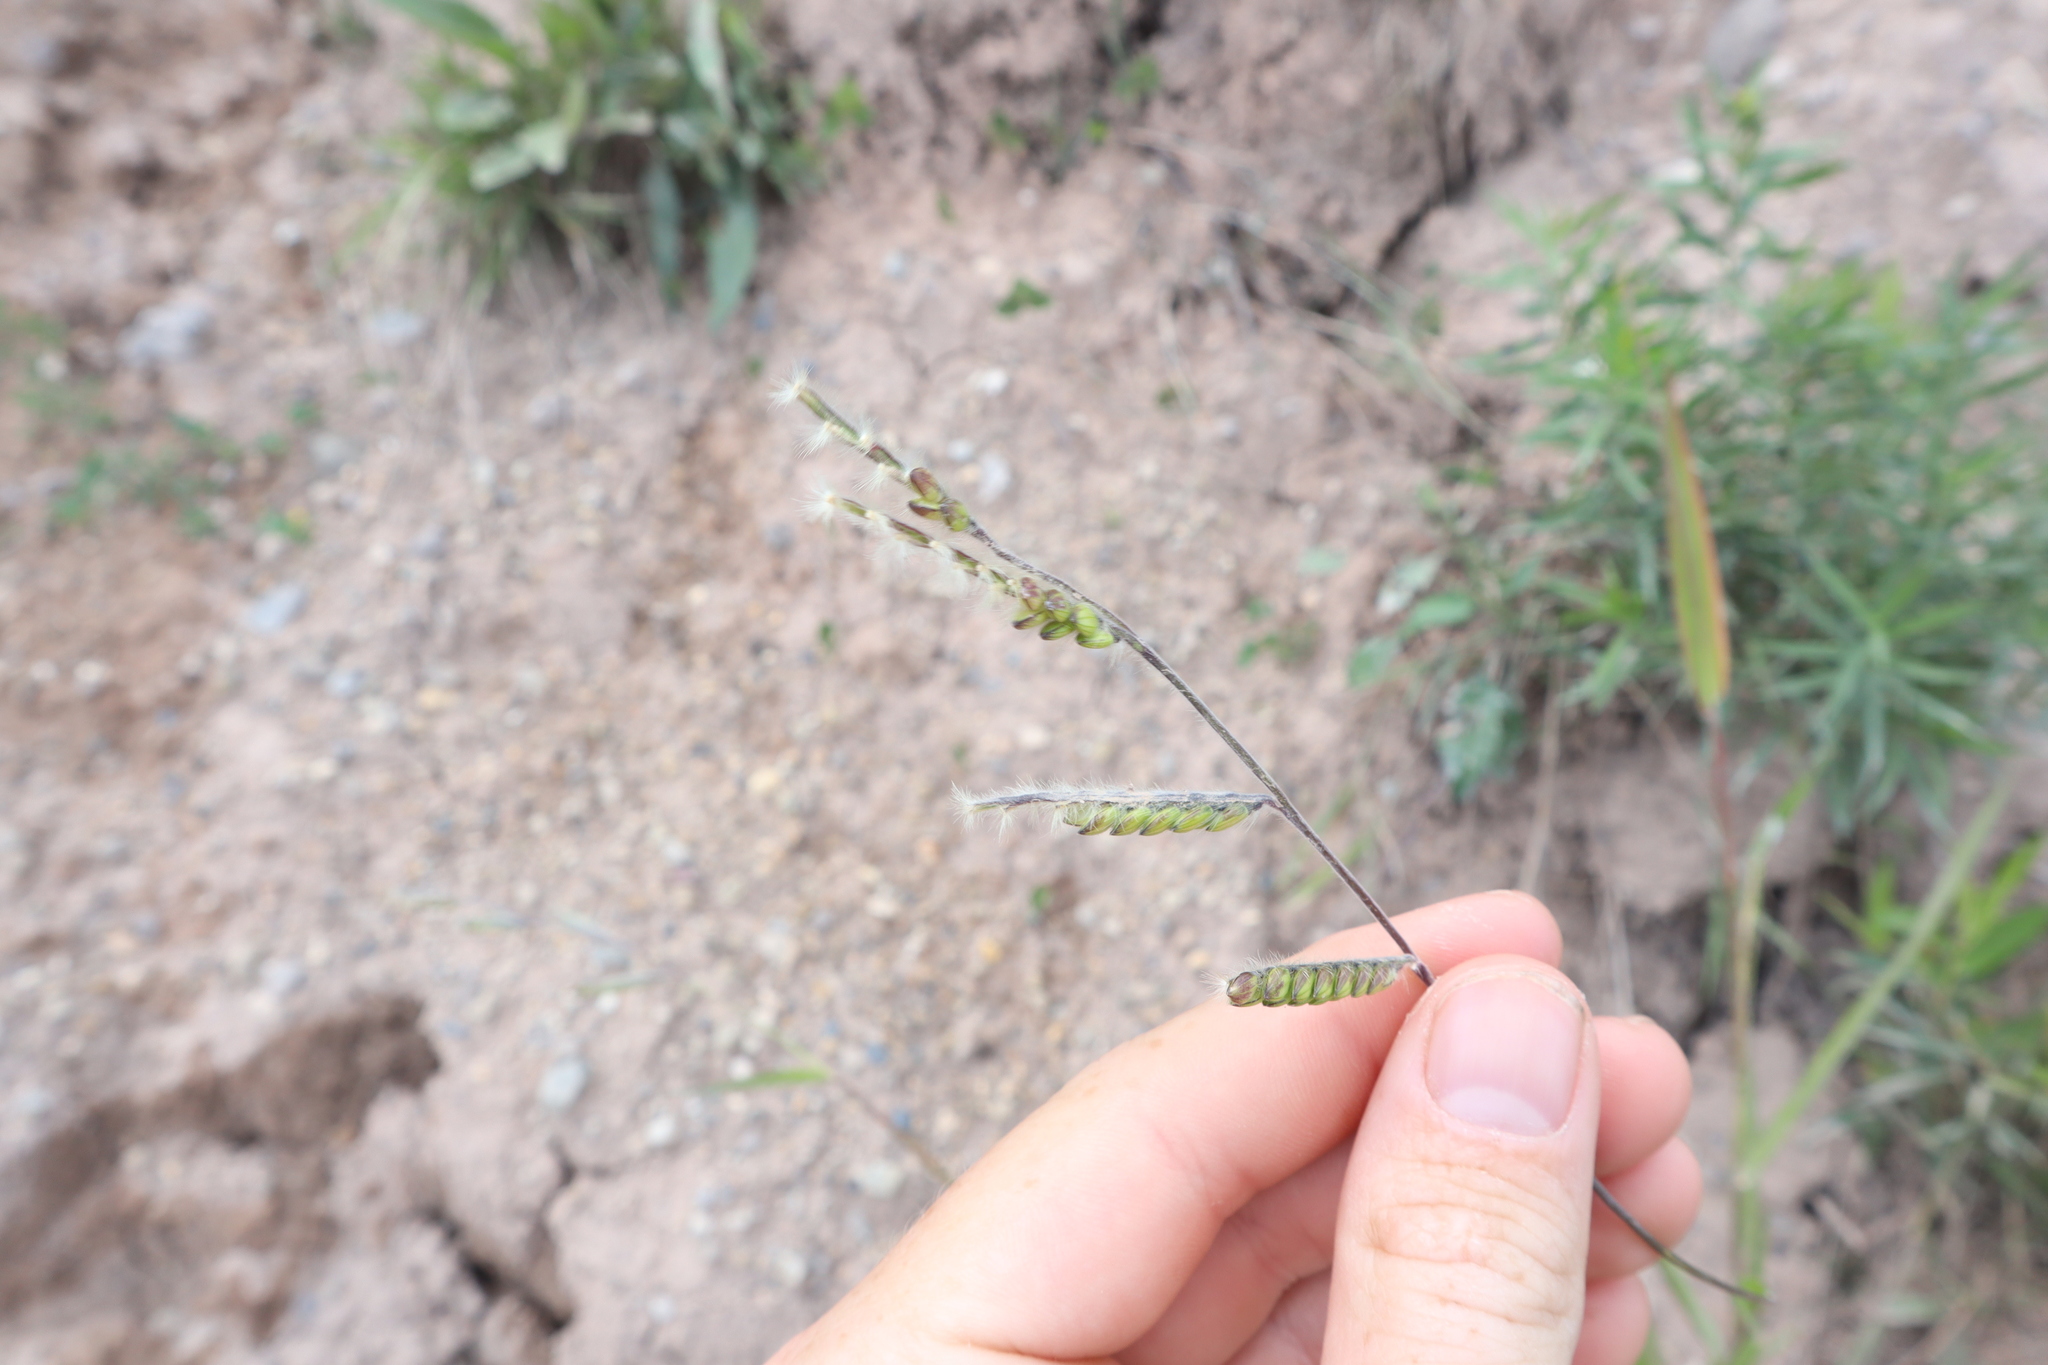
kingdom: Plantae
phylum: Tracheophyta
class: Liliopsida
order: Poales
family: Poaceae
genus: Eriochloa
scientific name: Eriochloa villosa
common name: Hairy cupgrass
